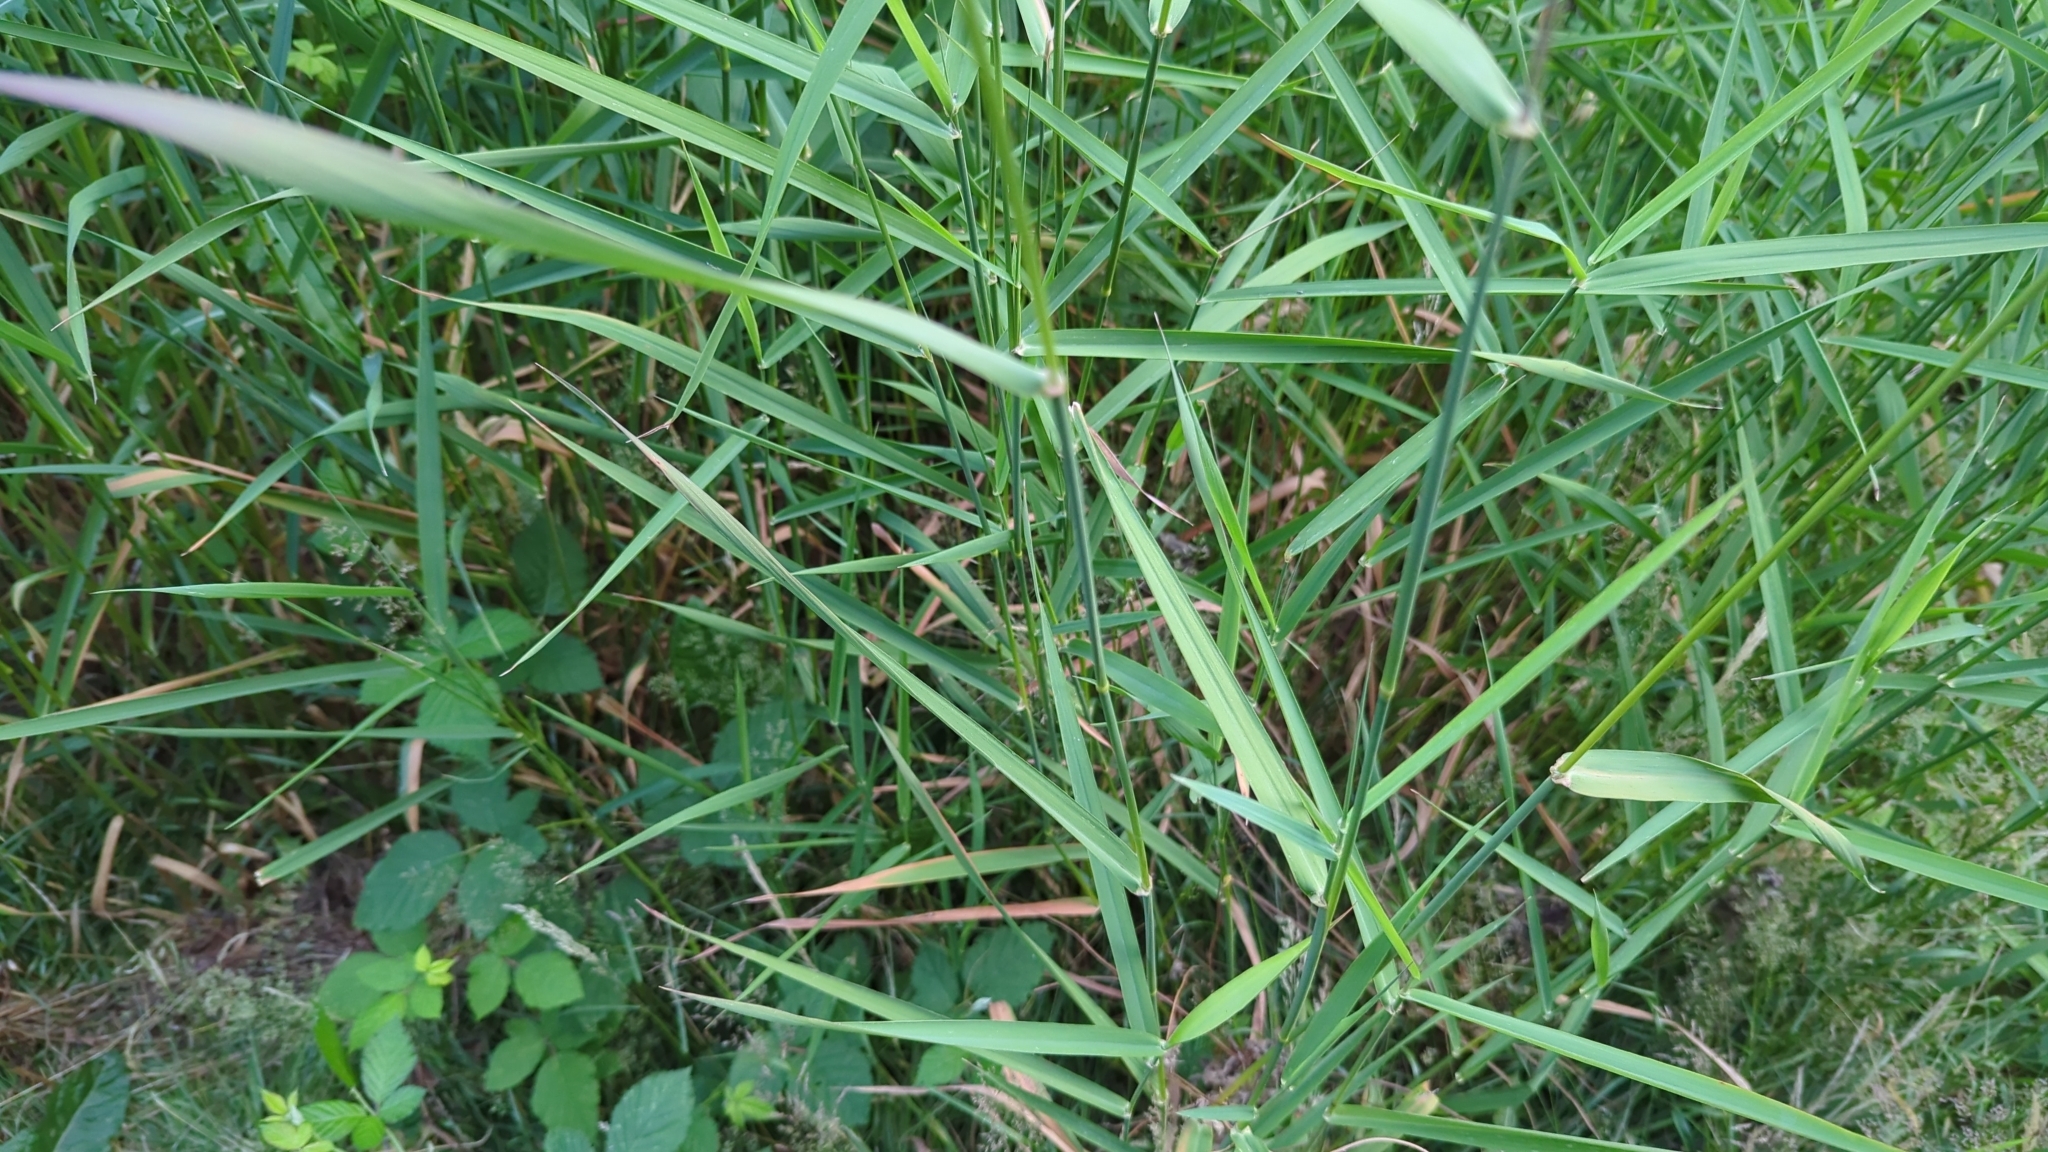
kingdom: Plantae
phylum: Tracheophyta
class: Liliopsida
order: Poales
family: Poaceae
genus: Phalaris
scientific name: Phalaris arundinacea
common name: Reed canary-grass
